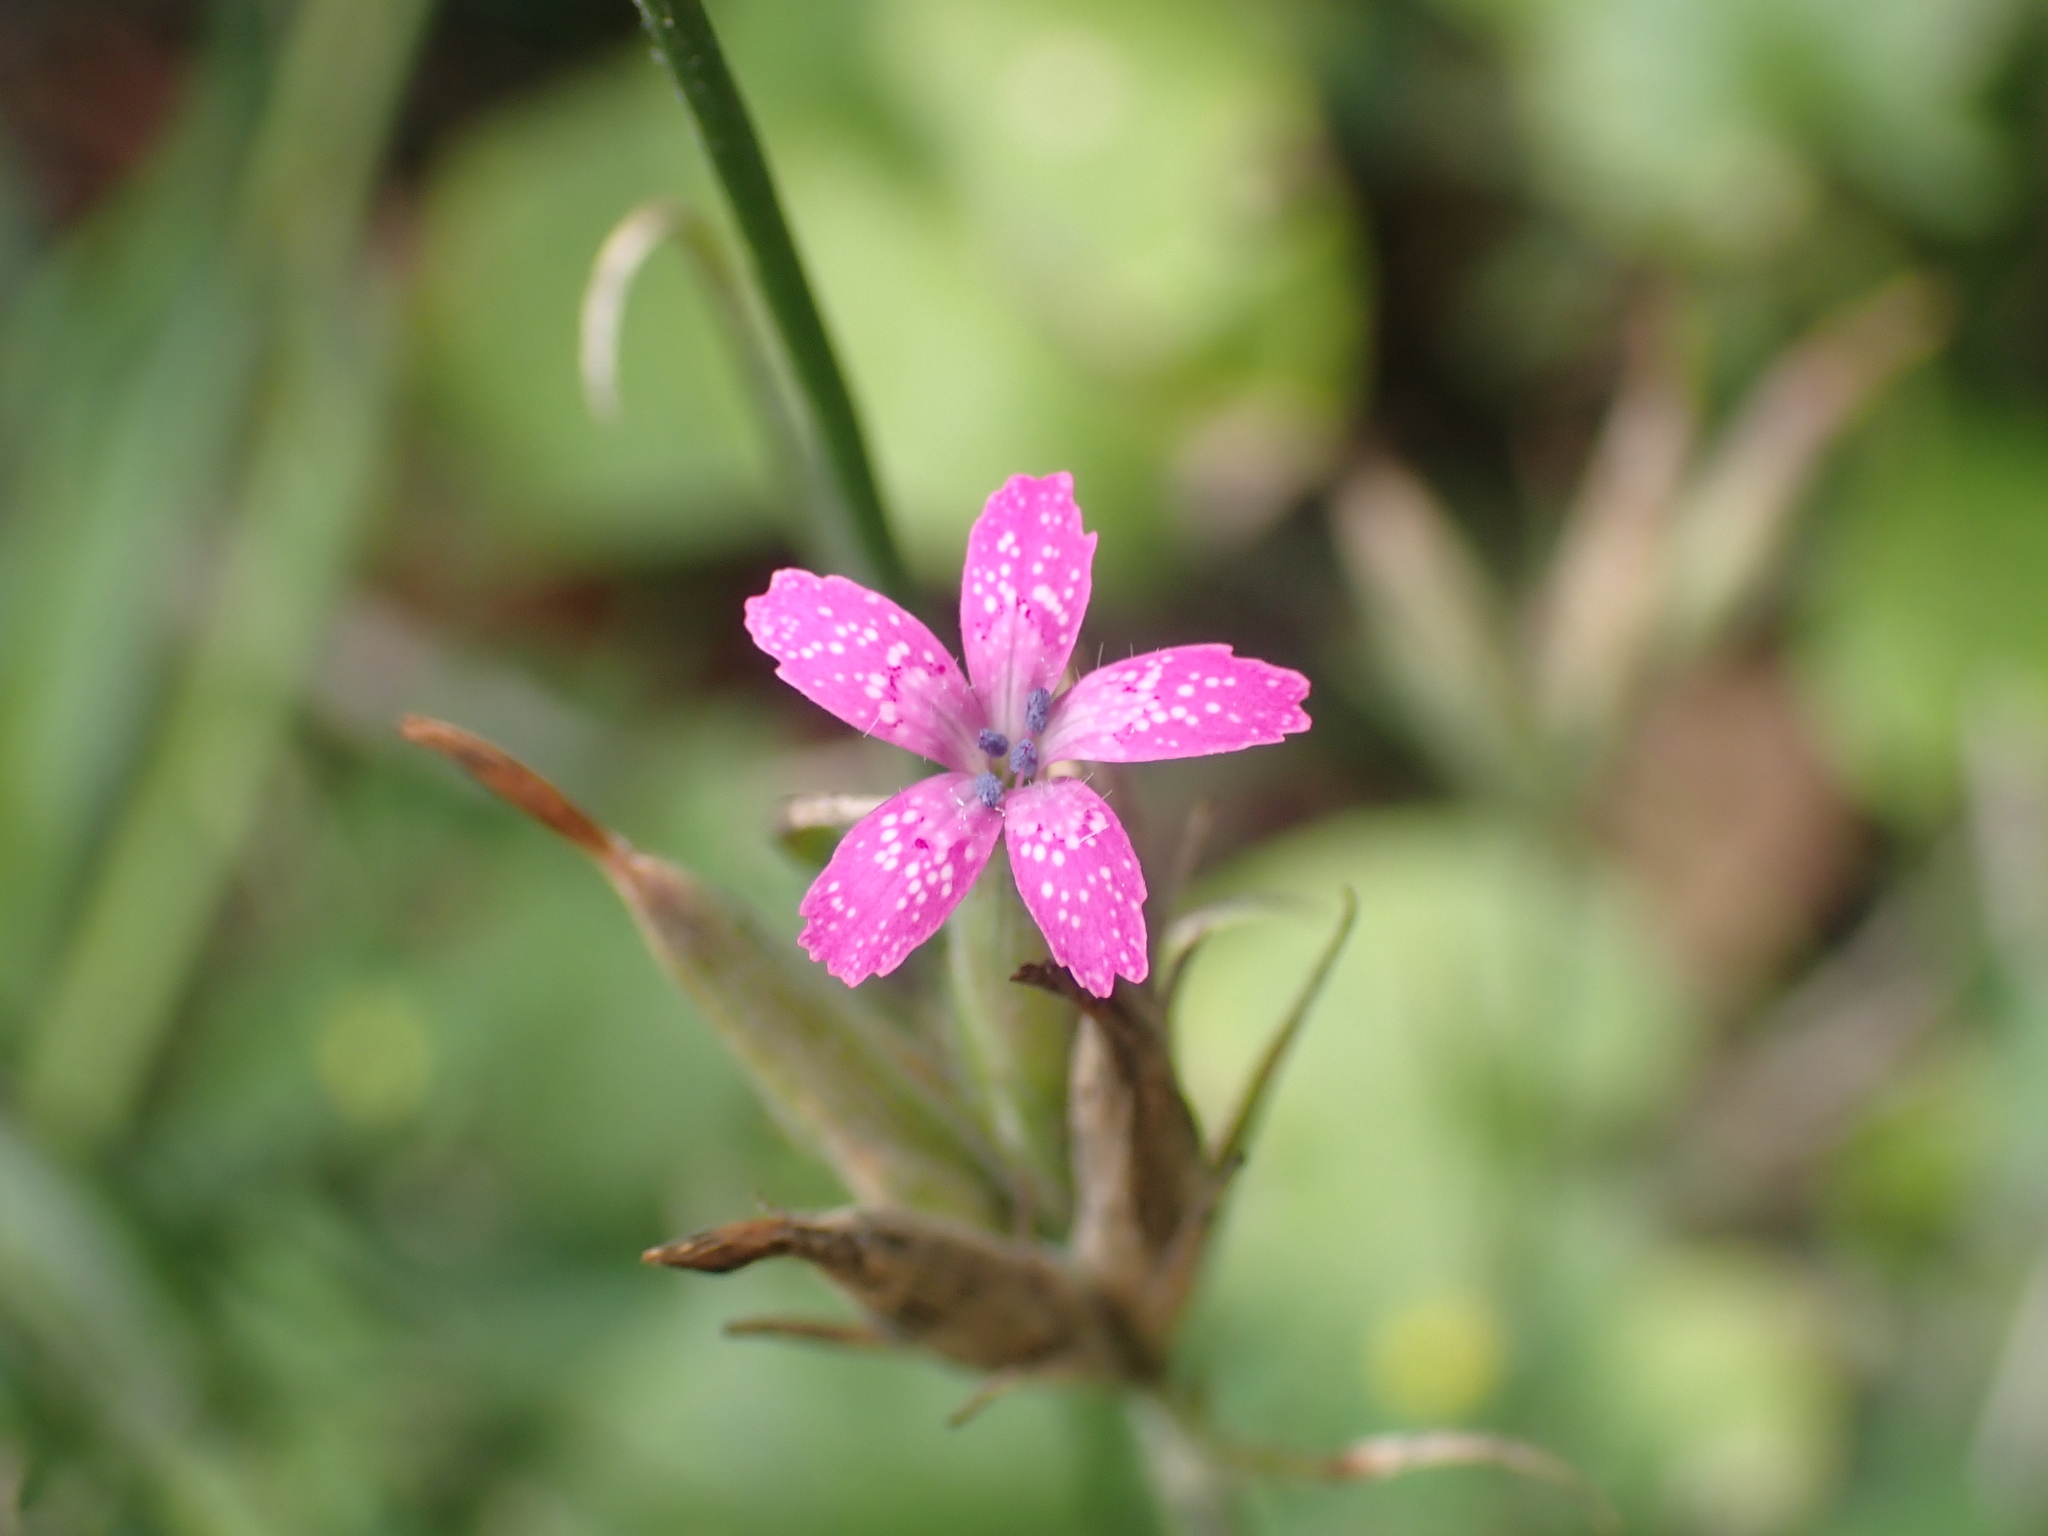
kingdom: Plantae
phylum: Tracheophyta
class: Magnoliopsida
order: Caryophyllales
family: Caryophyllaceae
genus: Dianthus
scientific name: Dianthus armeria
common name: Deptford pink
